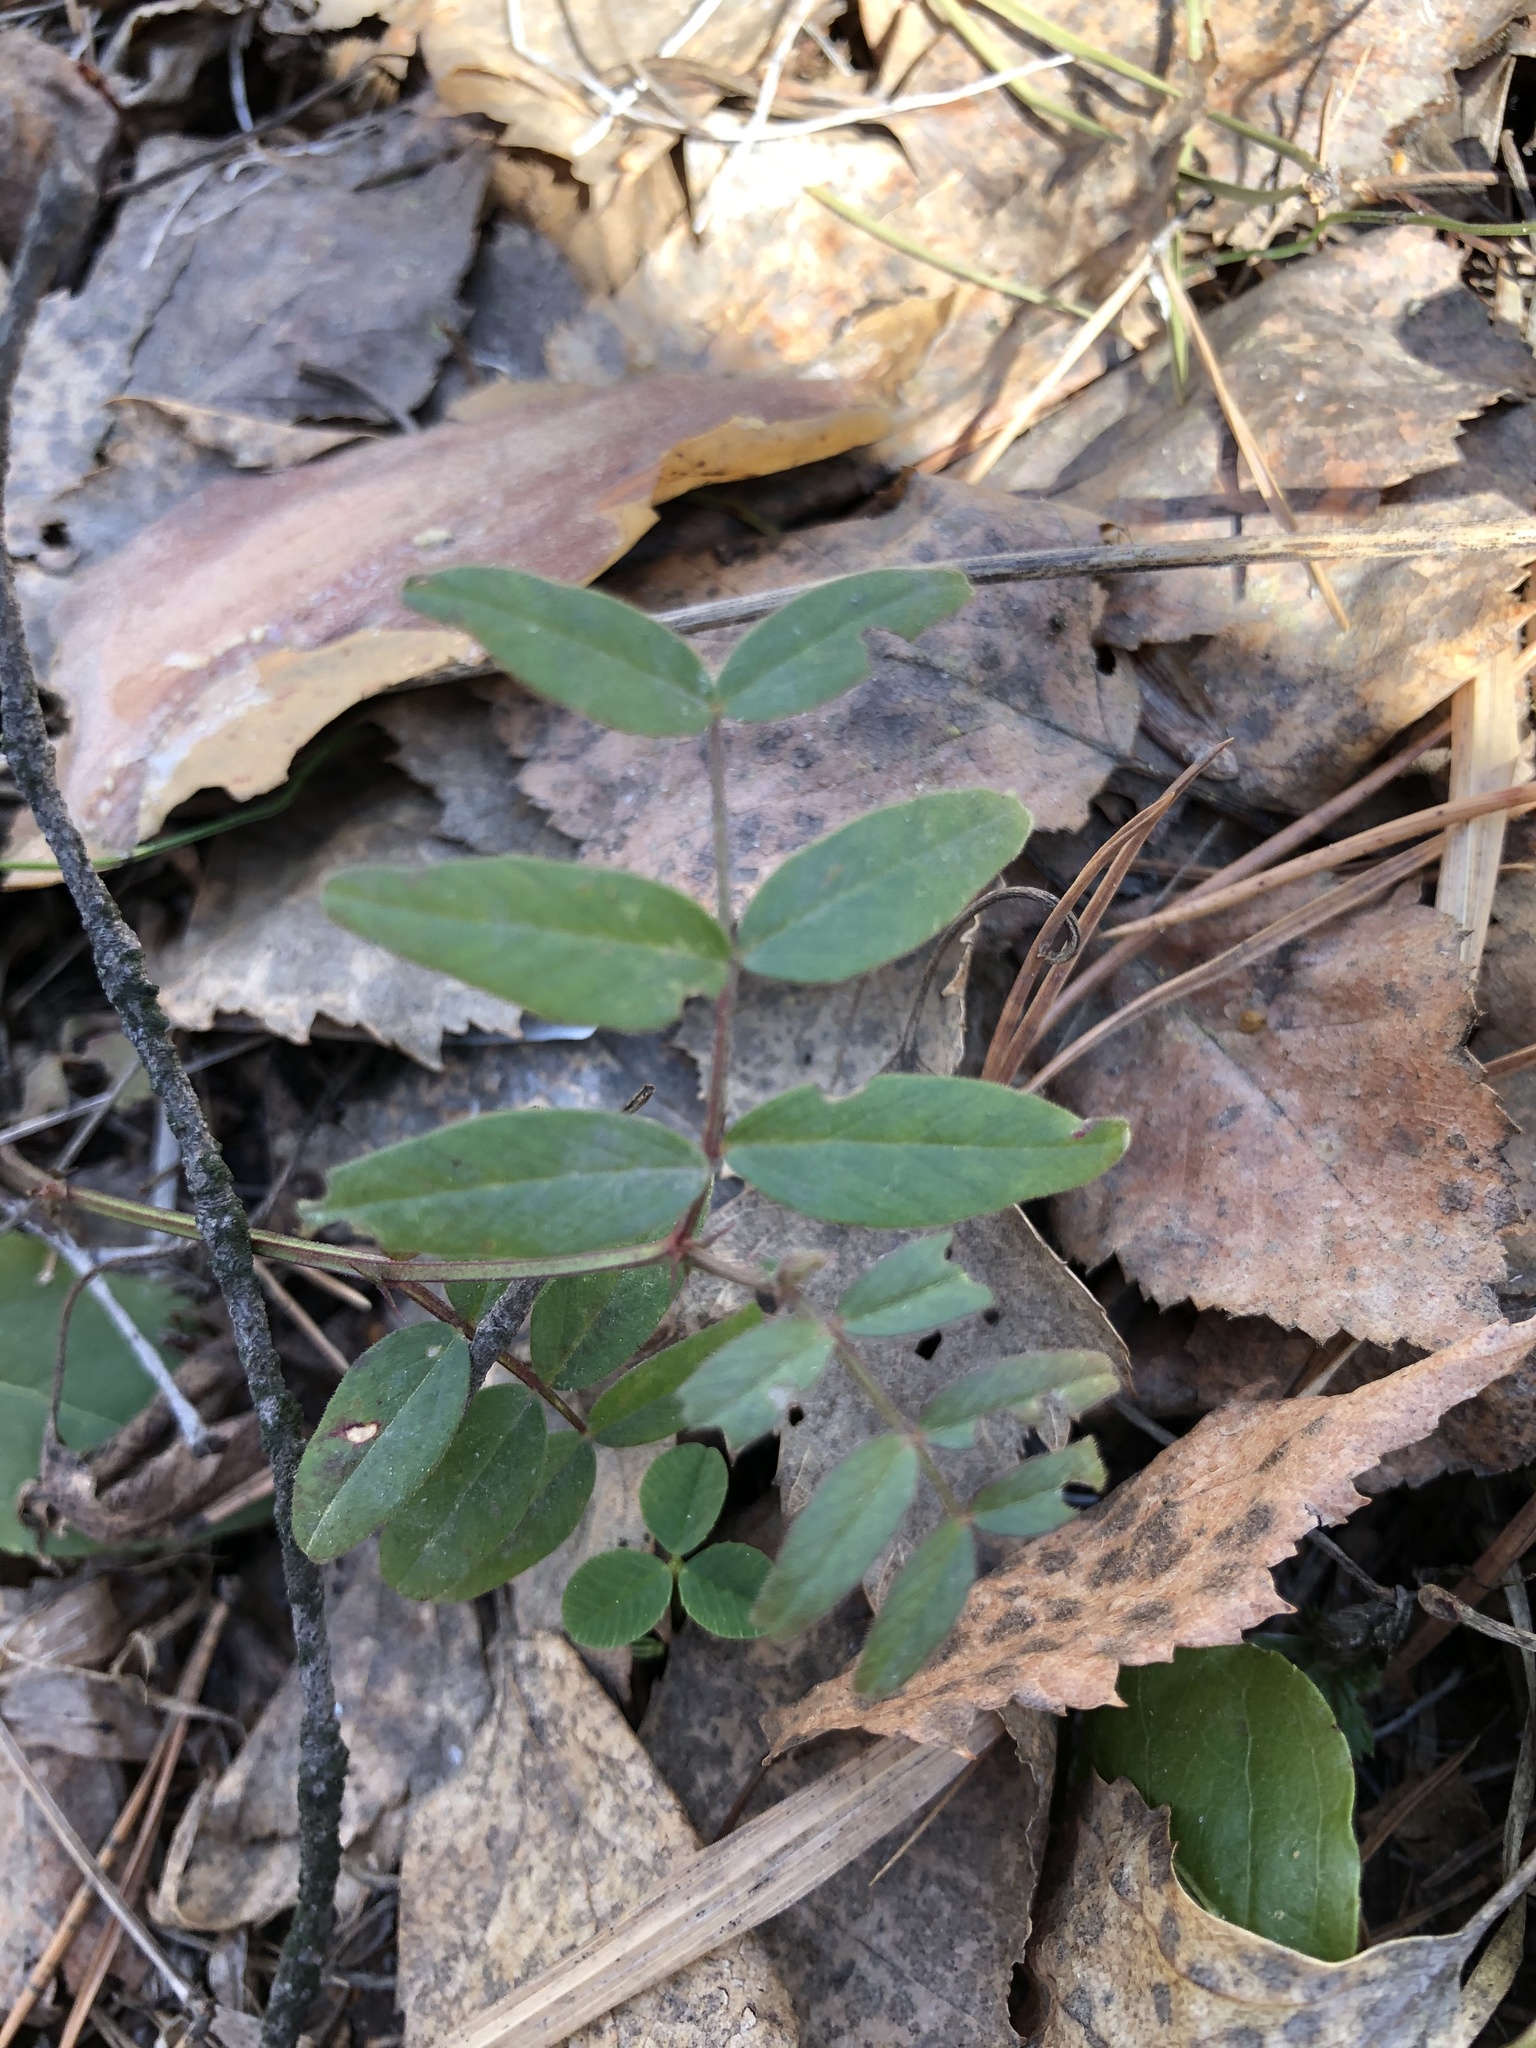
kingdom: Plantae
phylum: Tracheophyta
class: Magnoliopsida
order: Fabales
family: Fabaceae
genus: Vicia
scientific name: Vicia sepium
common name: Bush vetch
